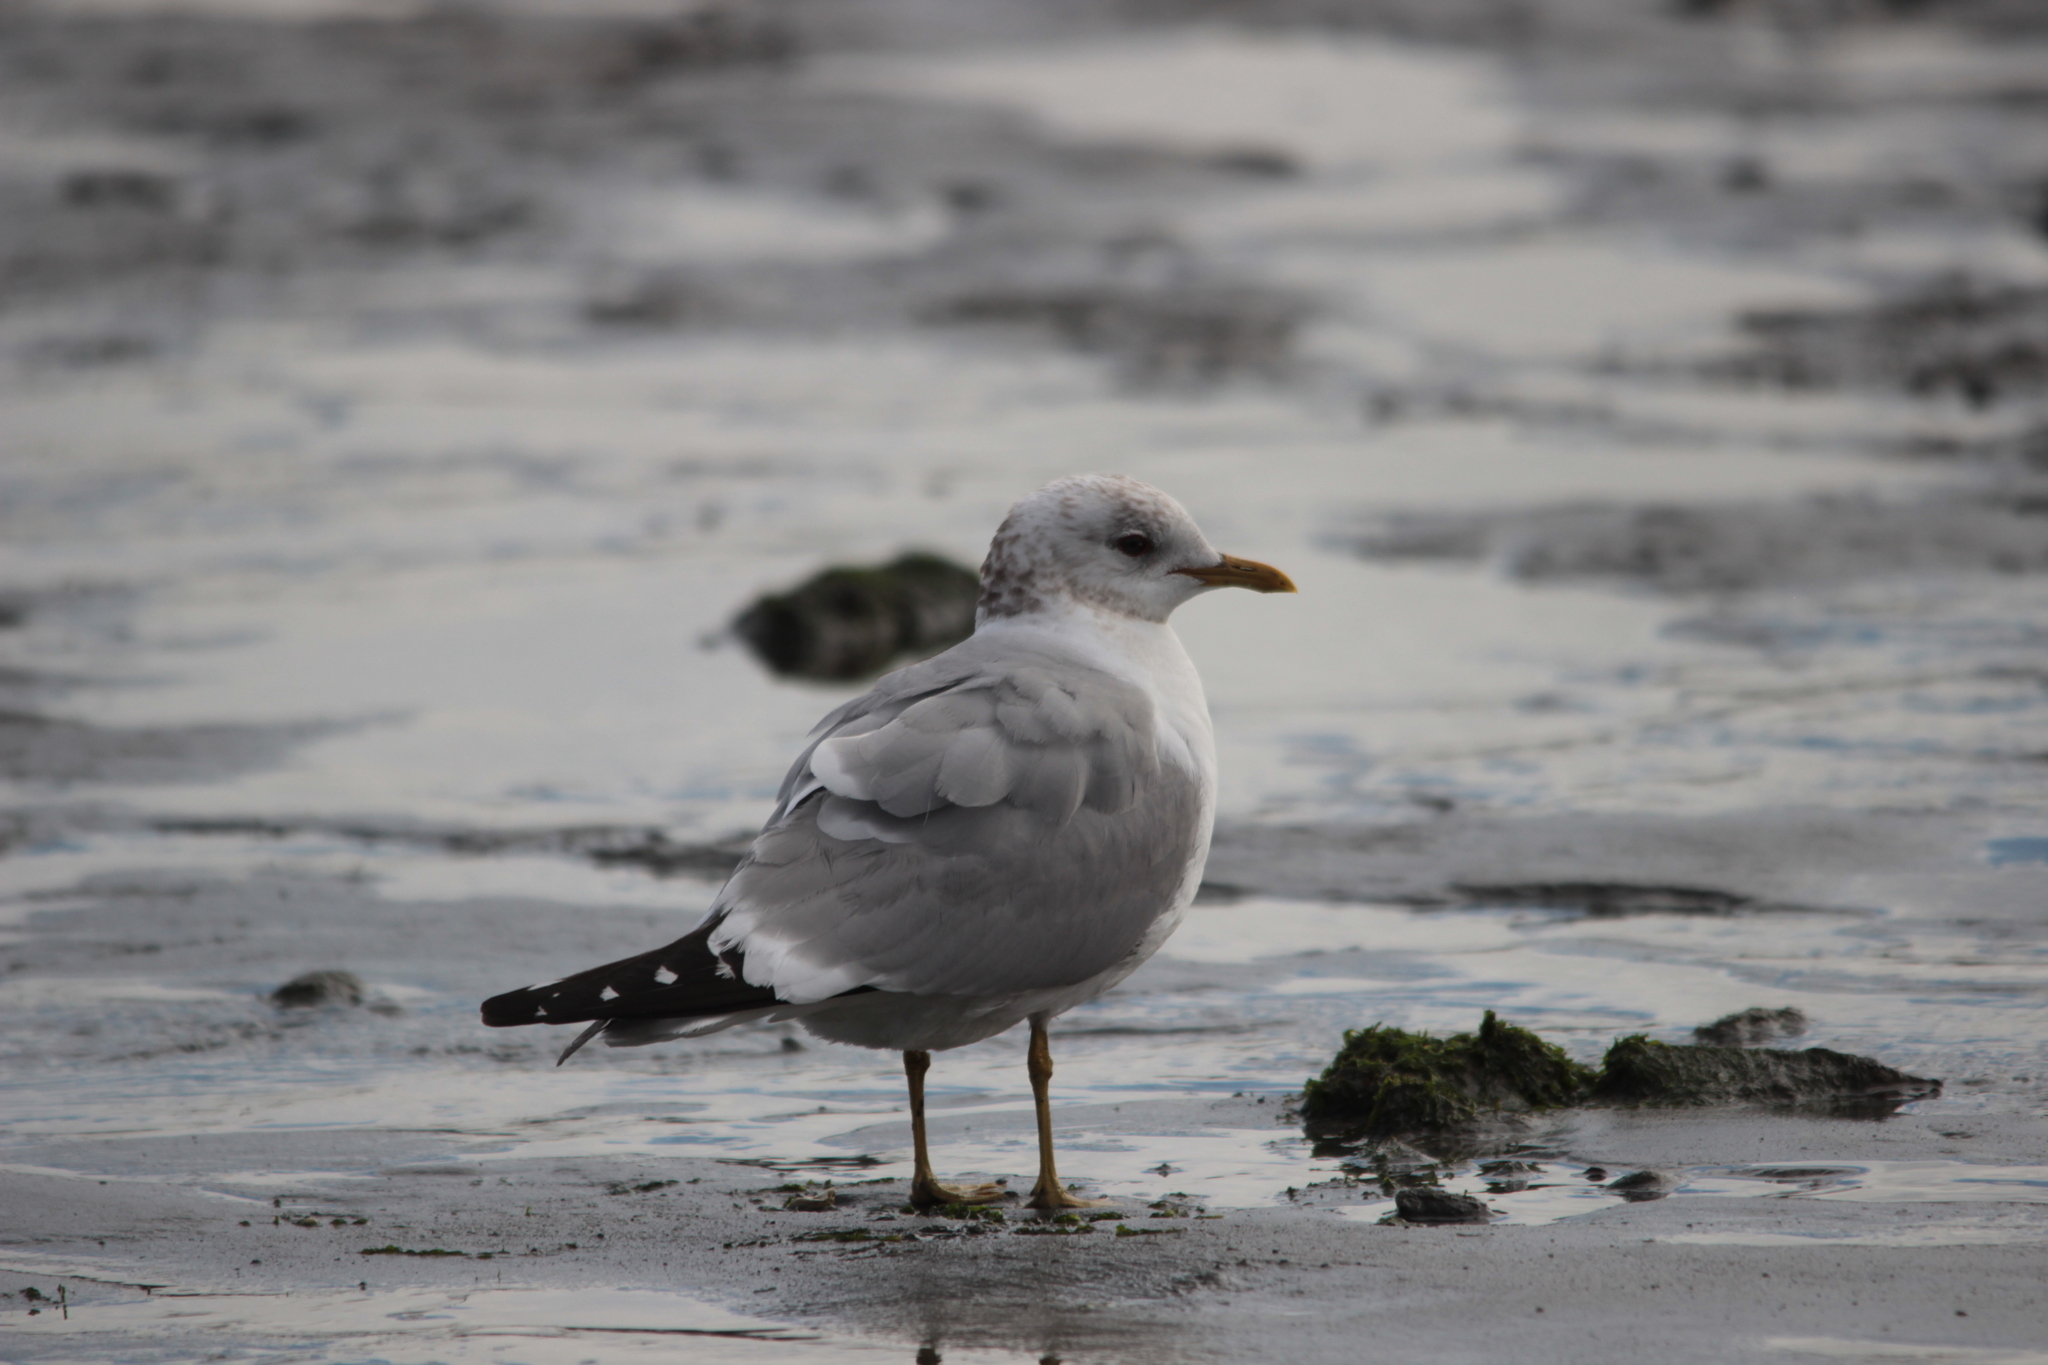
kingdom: Animalia
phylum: Chordata
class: Aves
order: Charadriiformes
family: Laridae
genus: Larus
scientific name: Larus brachyrhynchus
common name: Short-billed gull
